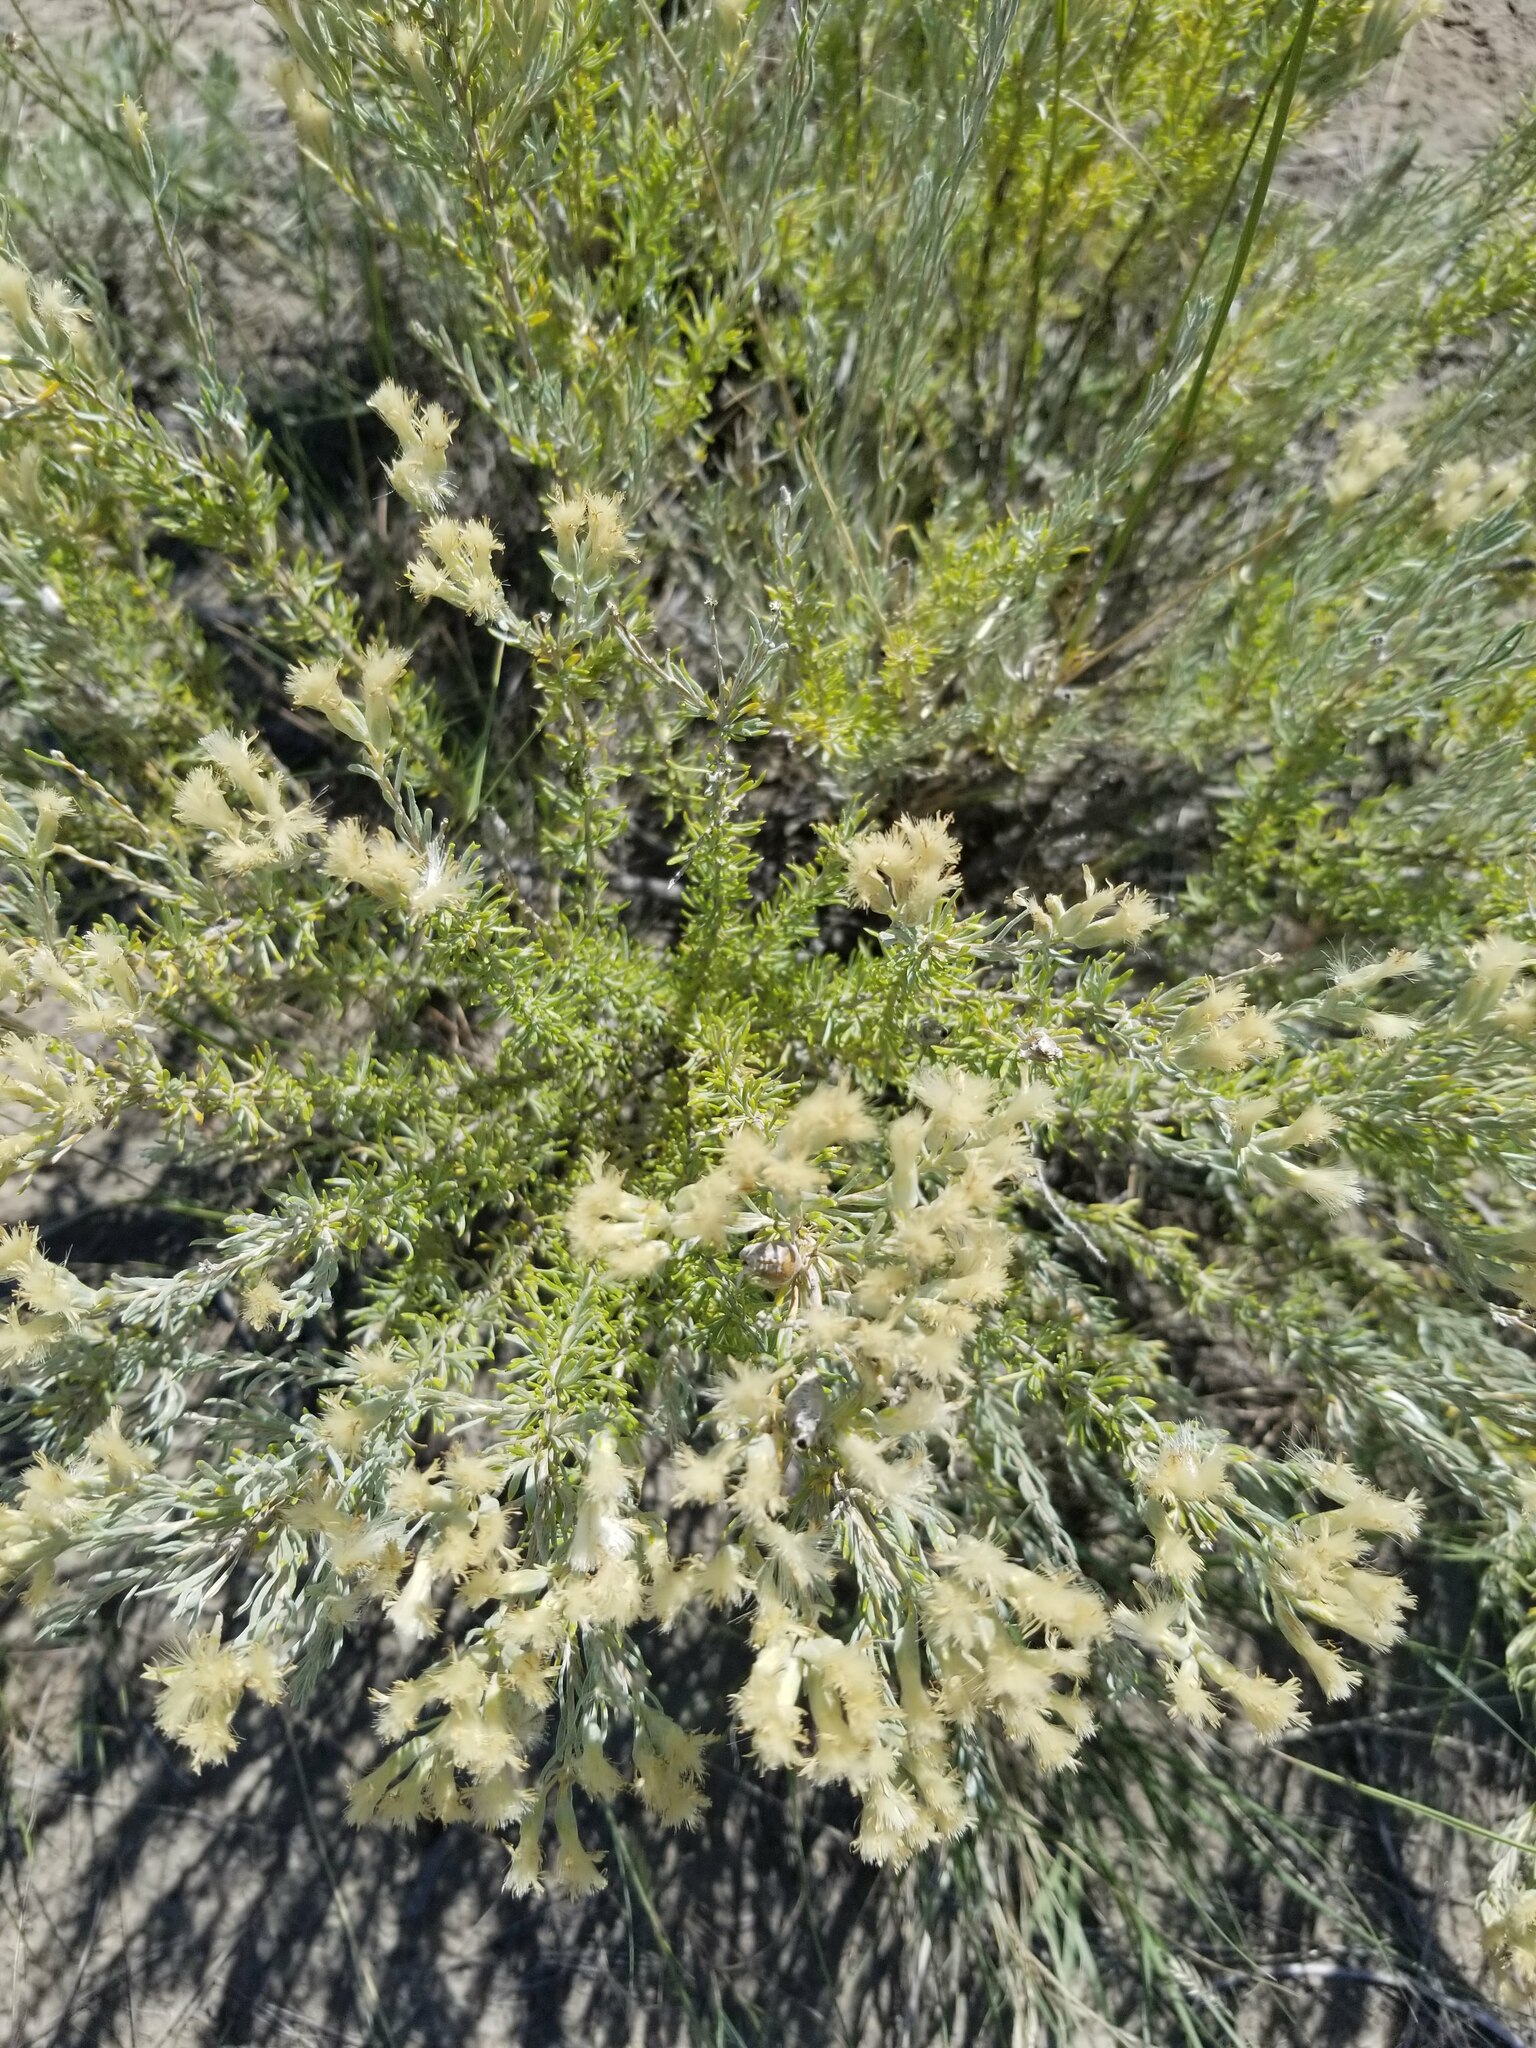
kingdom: Plantae
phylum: Tracheophyta
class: Magnoliopsida
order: Asterales
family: Asteraceae
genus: Tetradymia
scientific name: Tetradymia canescens
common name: Spineless horsebrush
